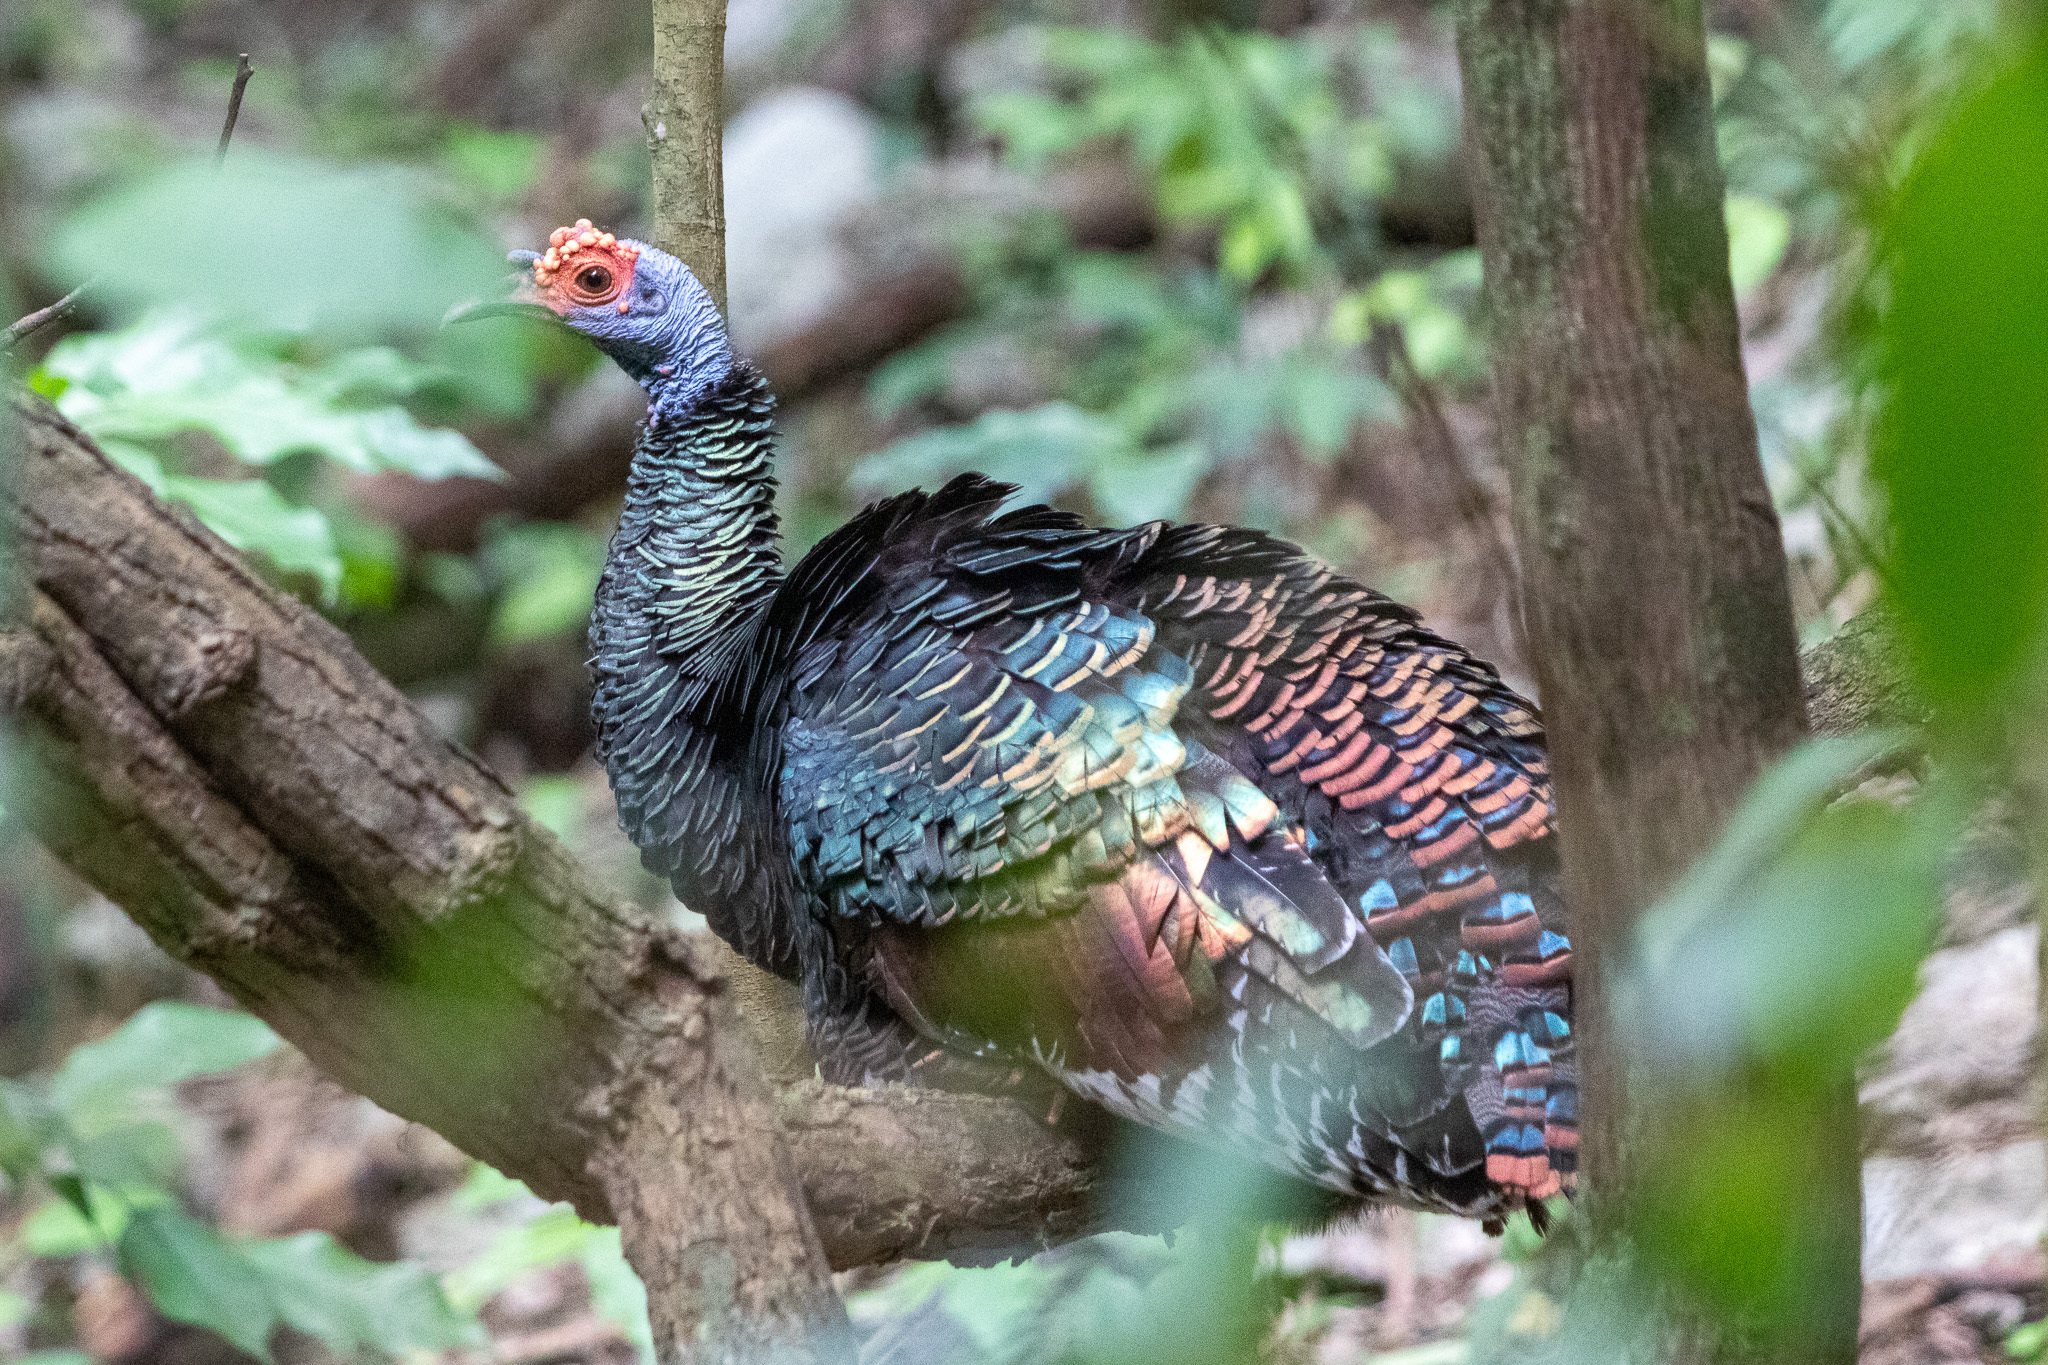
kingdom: Animalia
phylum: Chordata
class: Aves
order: Galliformes
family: Phasianidae
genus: Meleagris
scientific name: Meleagris ocellata
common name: Ocellated turkey
